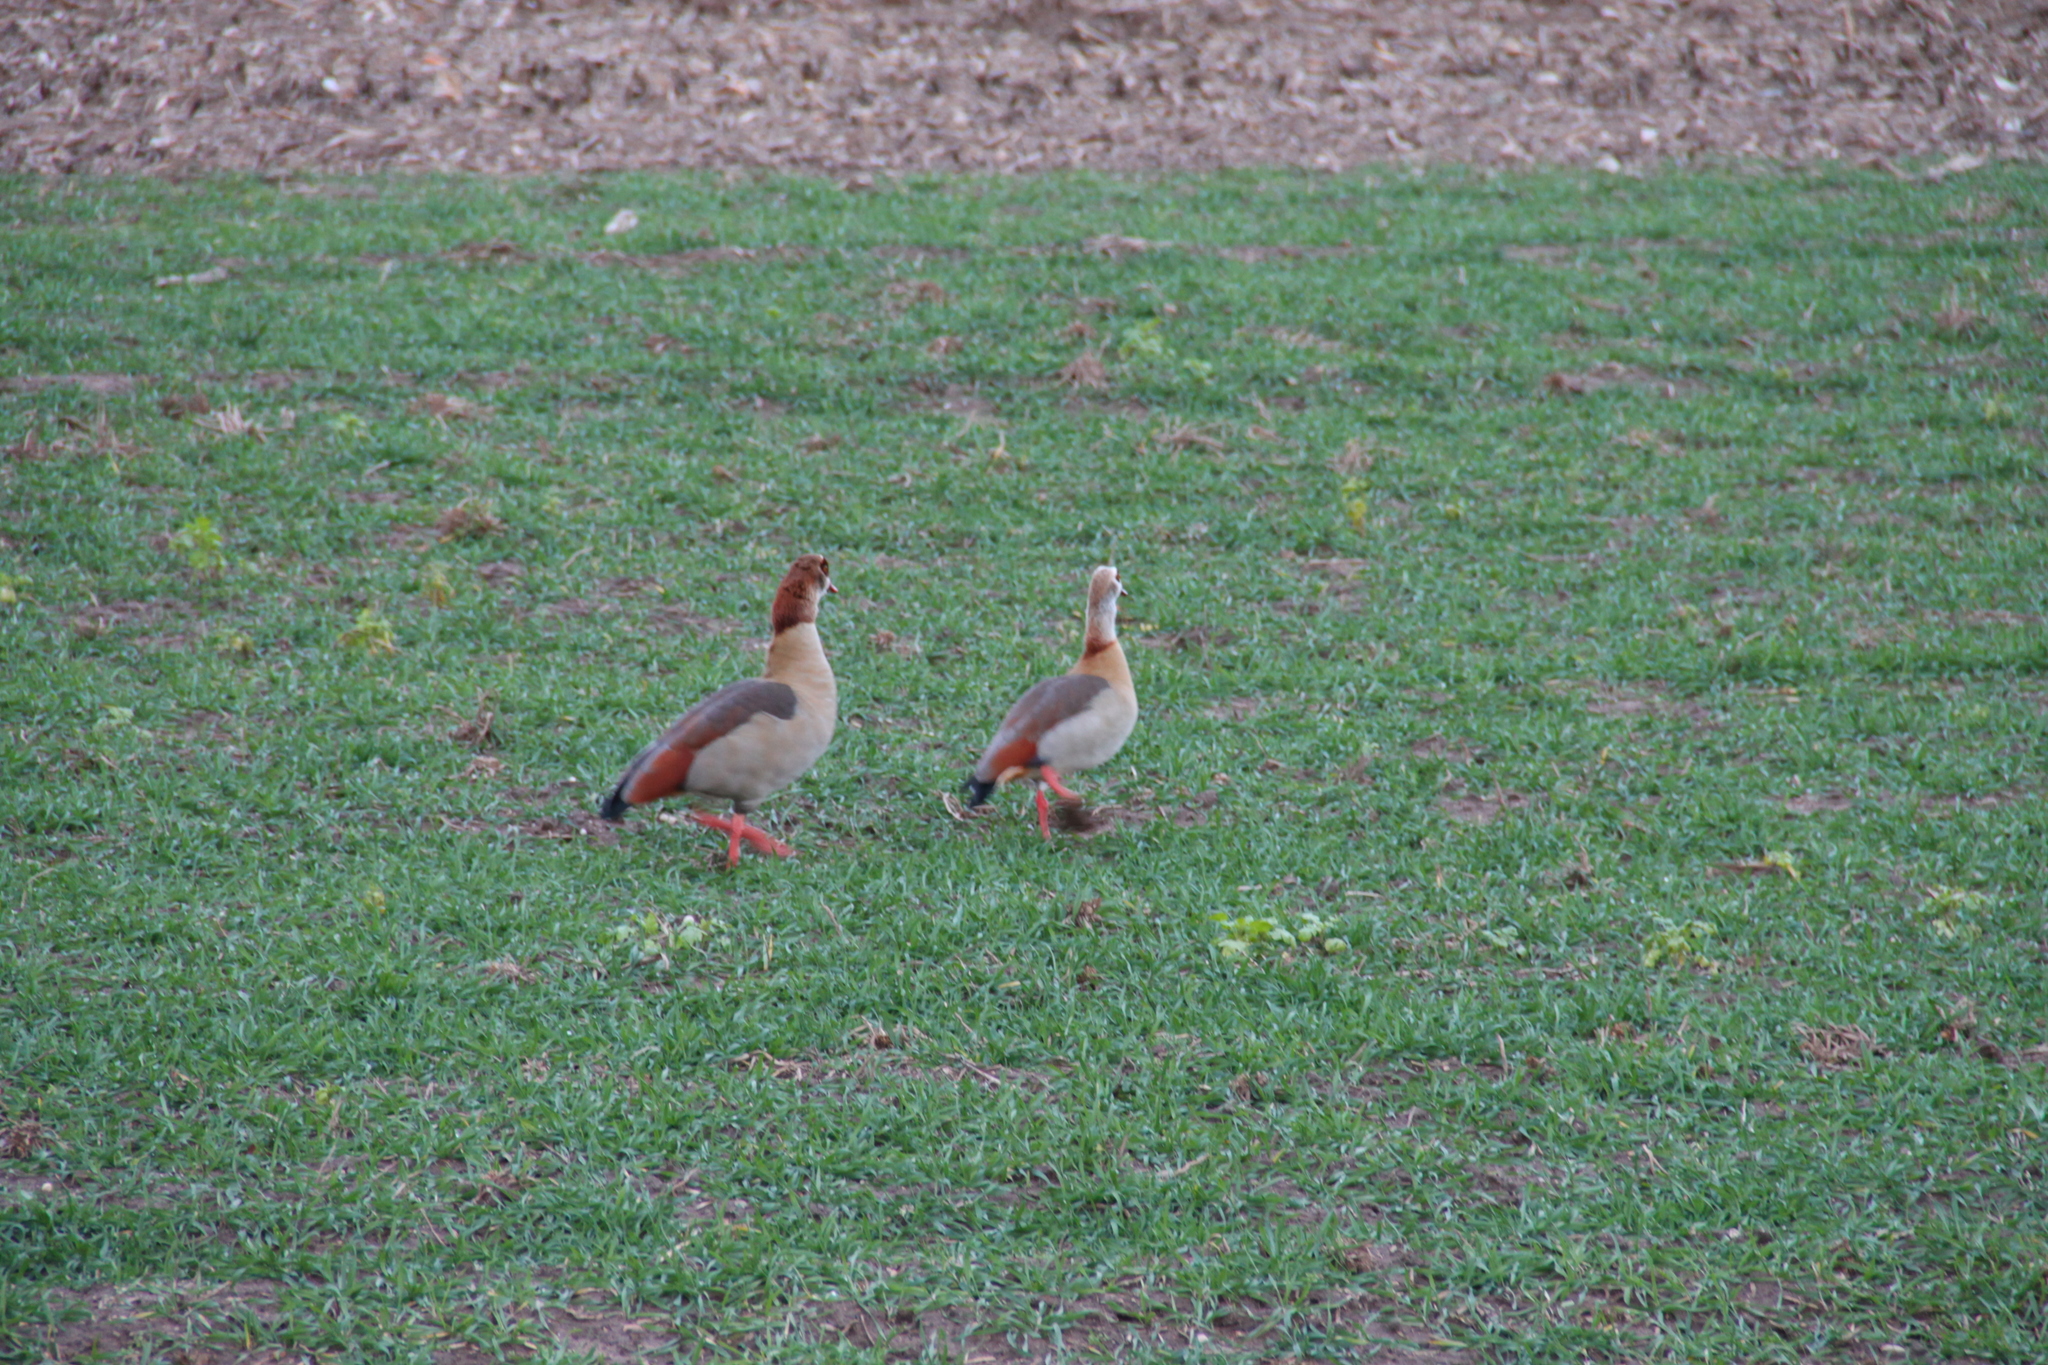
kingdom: Animalia
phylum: Chordata
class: Aves
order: Anseriformes
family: Anatidae
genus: Alopochen
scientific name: Alopochen aegyptiaca
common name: Egyptian goose
